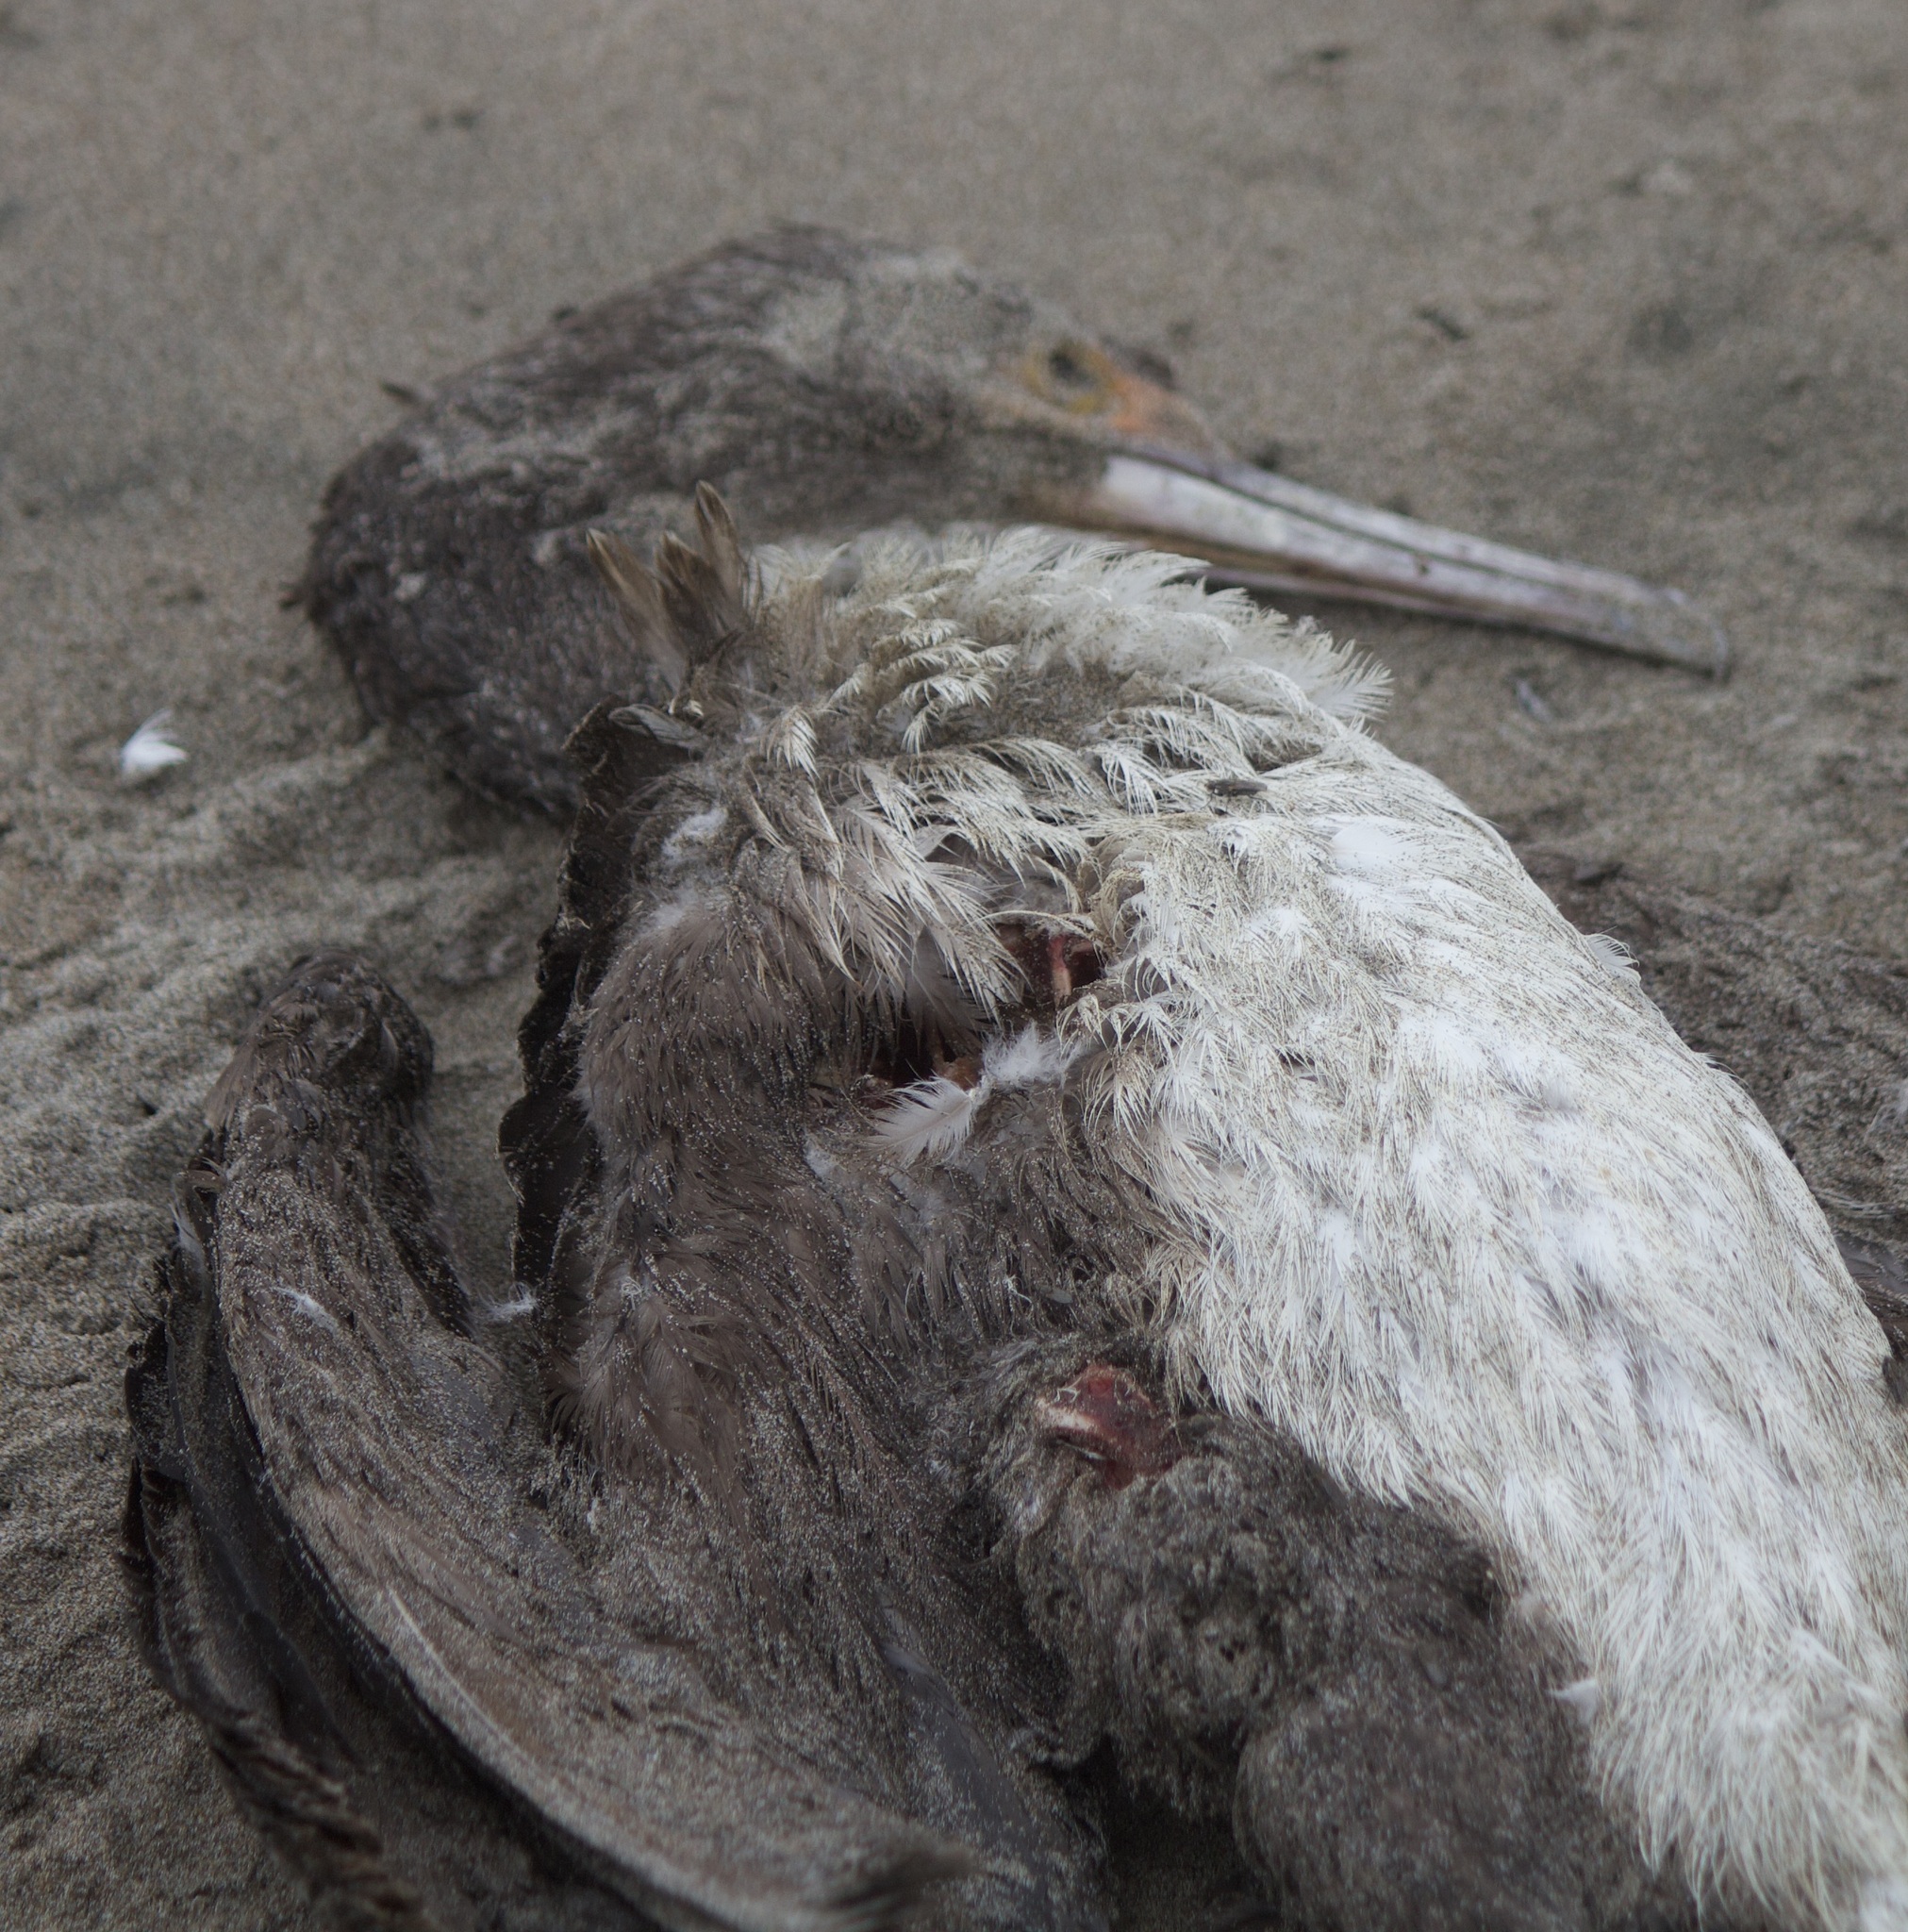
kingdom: Animalia
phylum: Chordata
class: Aves
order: Suliformes
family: Phalacrocoracidae
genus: Leucocarbo
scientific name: Leucocarbo bougainvillii
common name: Guanay cormorant
